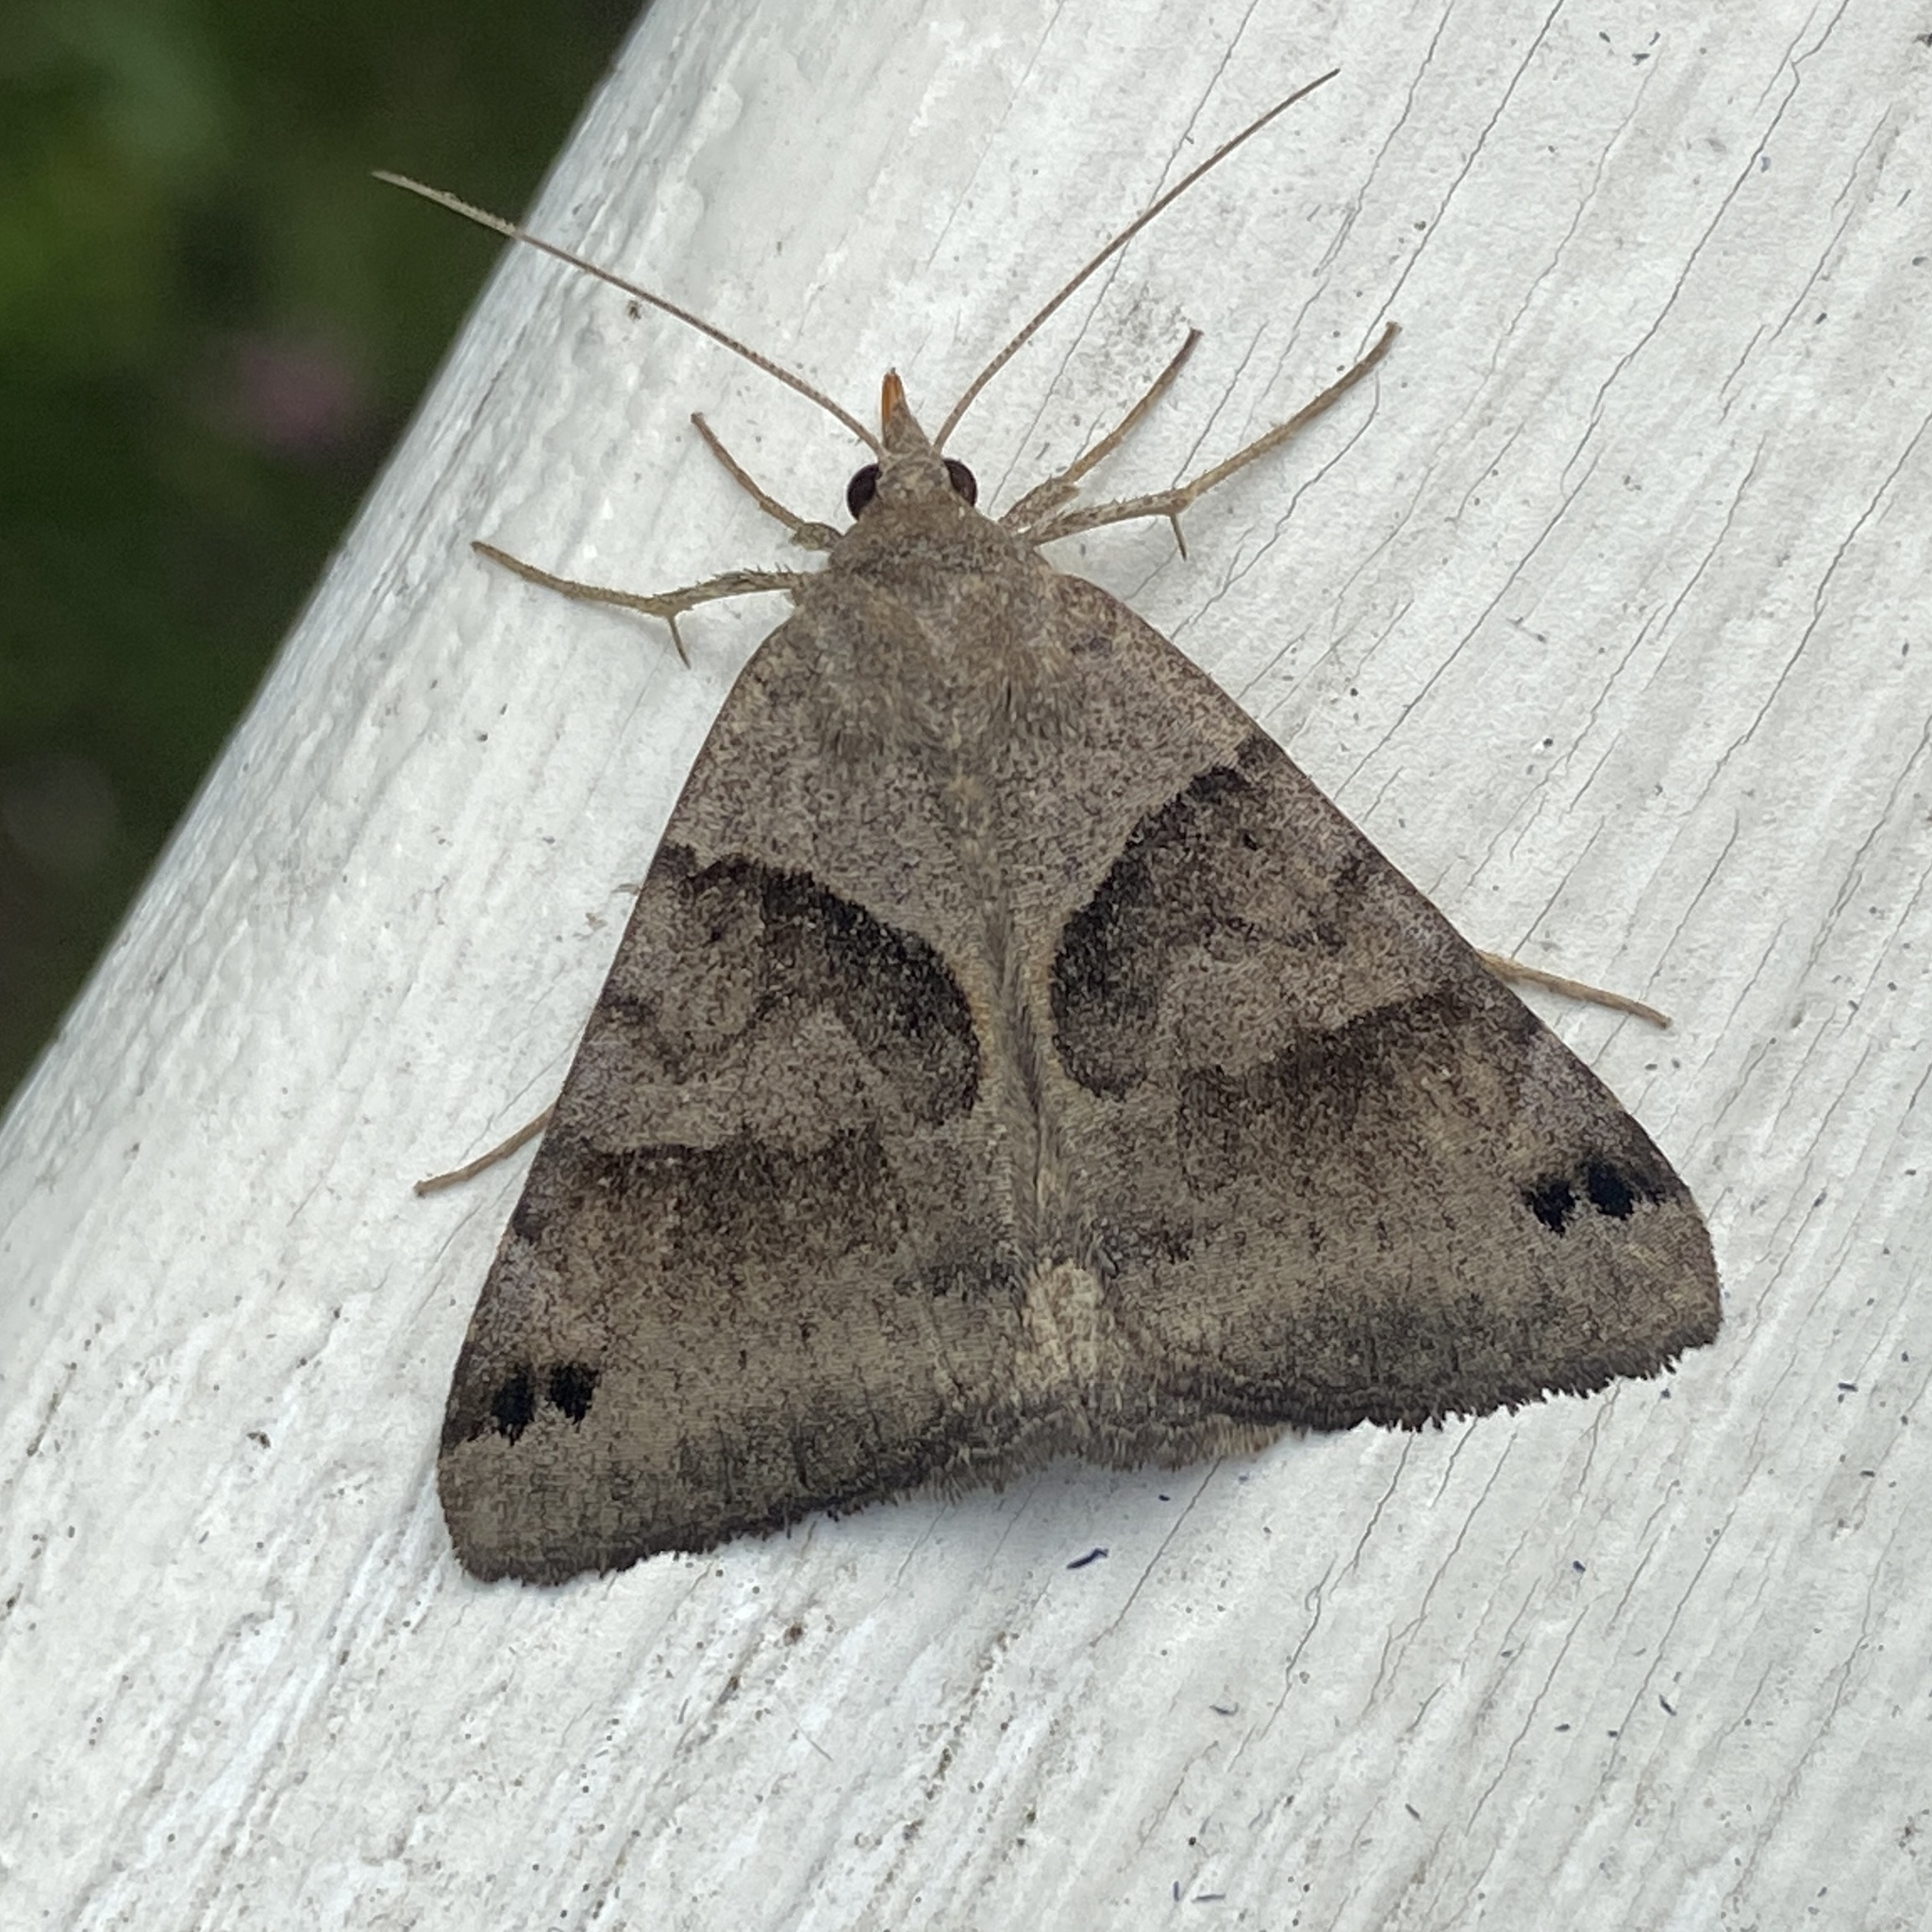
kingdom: Animalia
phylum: Arthropoda
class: Insecta
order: Lepidoptera
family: Erebidae
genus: Caenurgina
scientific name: Caenurgina erechtea
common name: Forage looper moth
